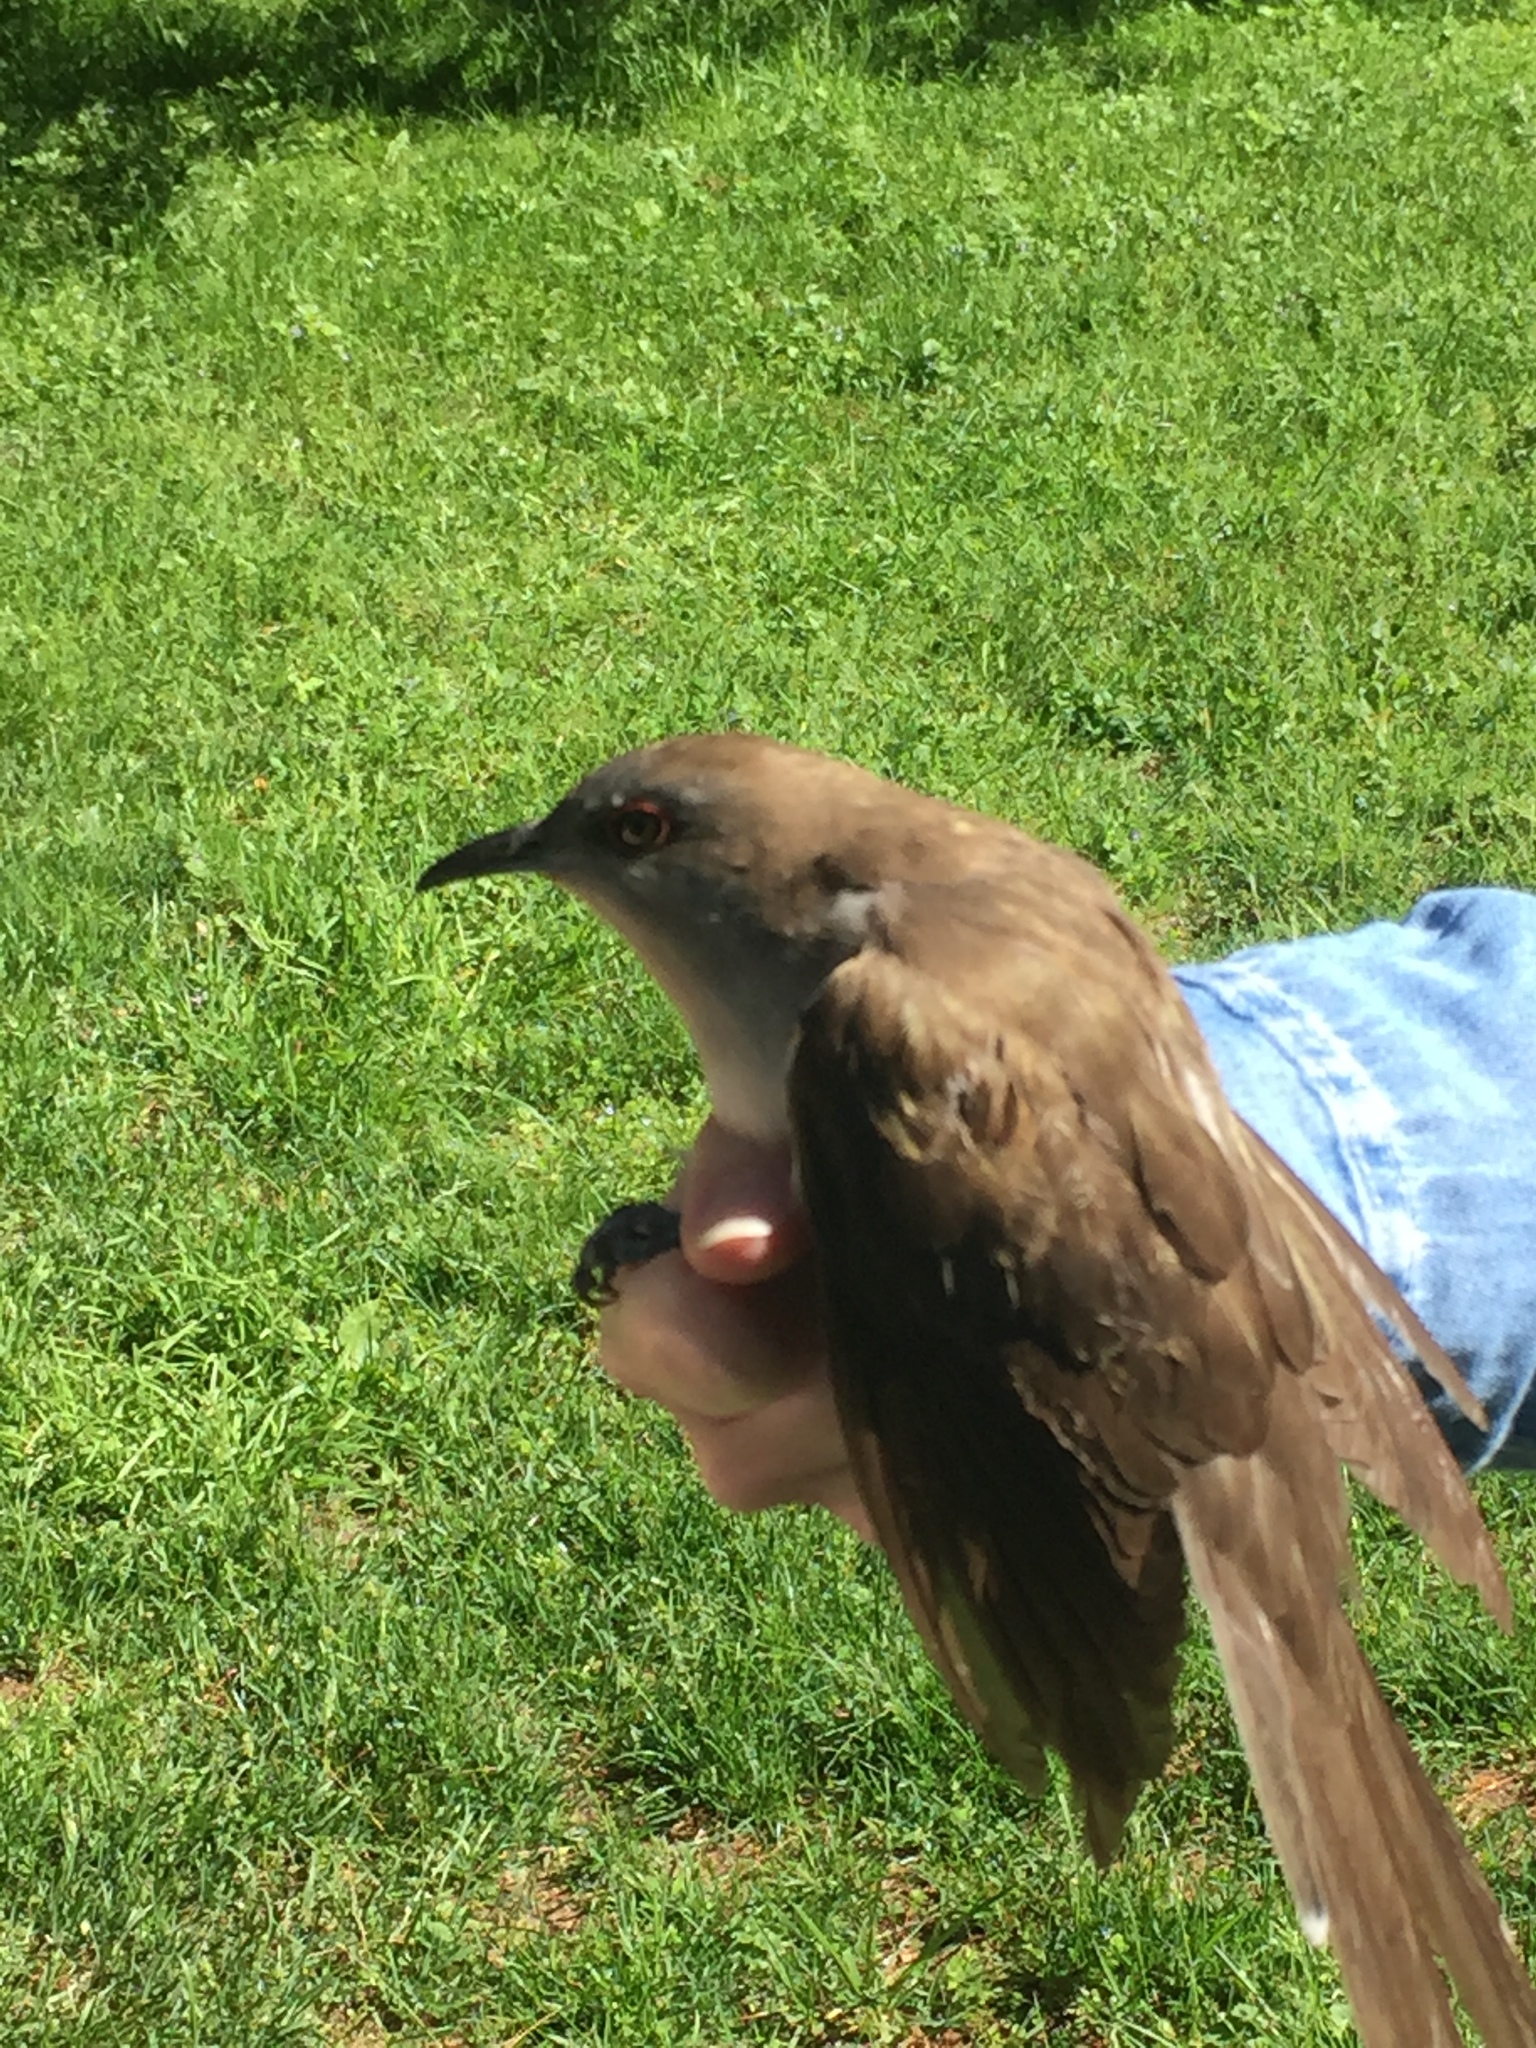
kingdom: Animalia
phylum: Chordata
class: Aves
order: Cuculiformes
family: Cuculidae
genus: Coccyzus
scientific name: Coccyzus erythropthalmus
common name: Black-billed cuckoo
